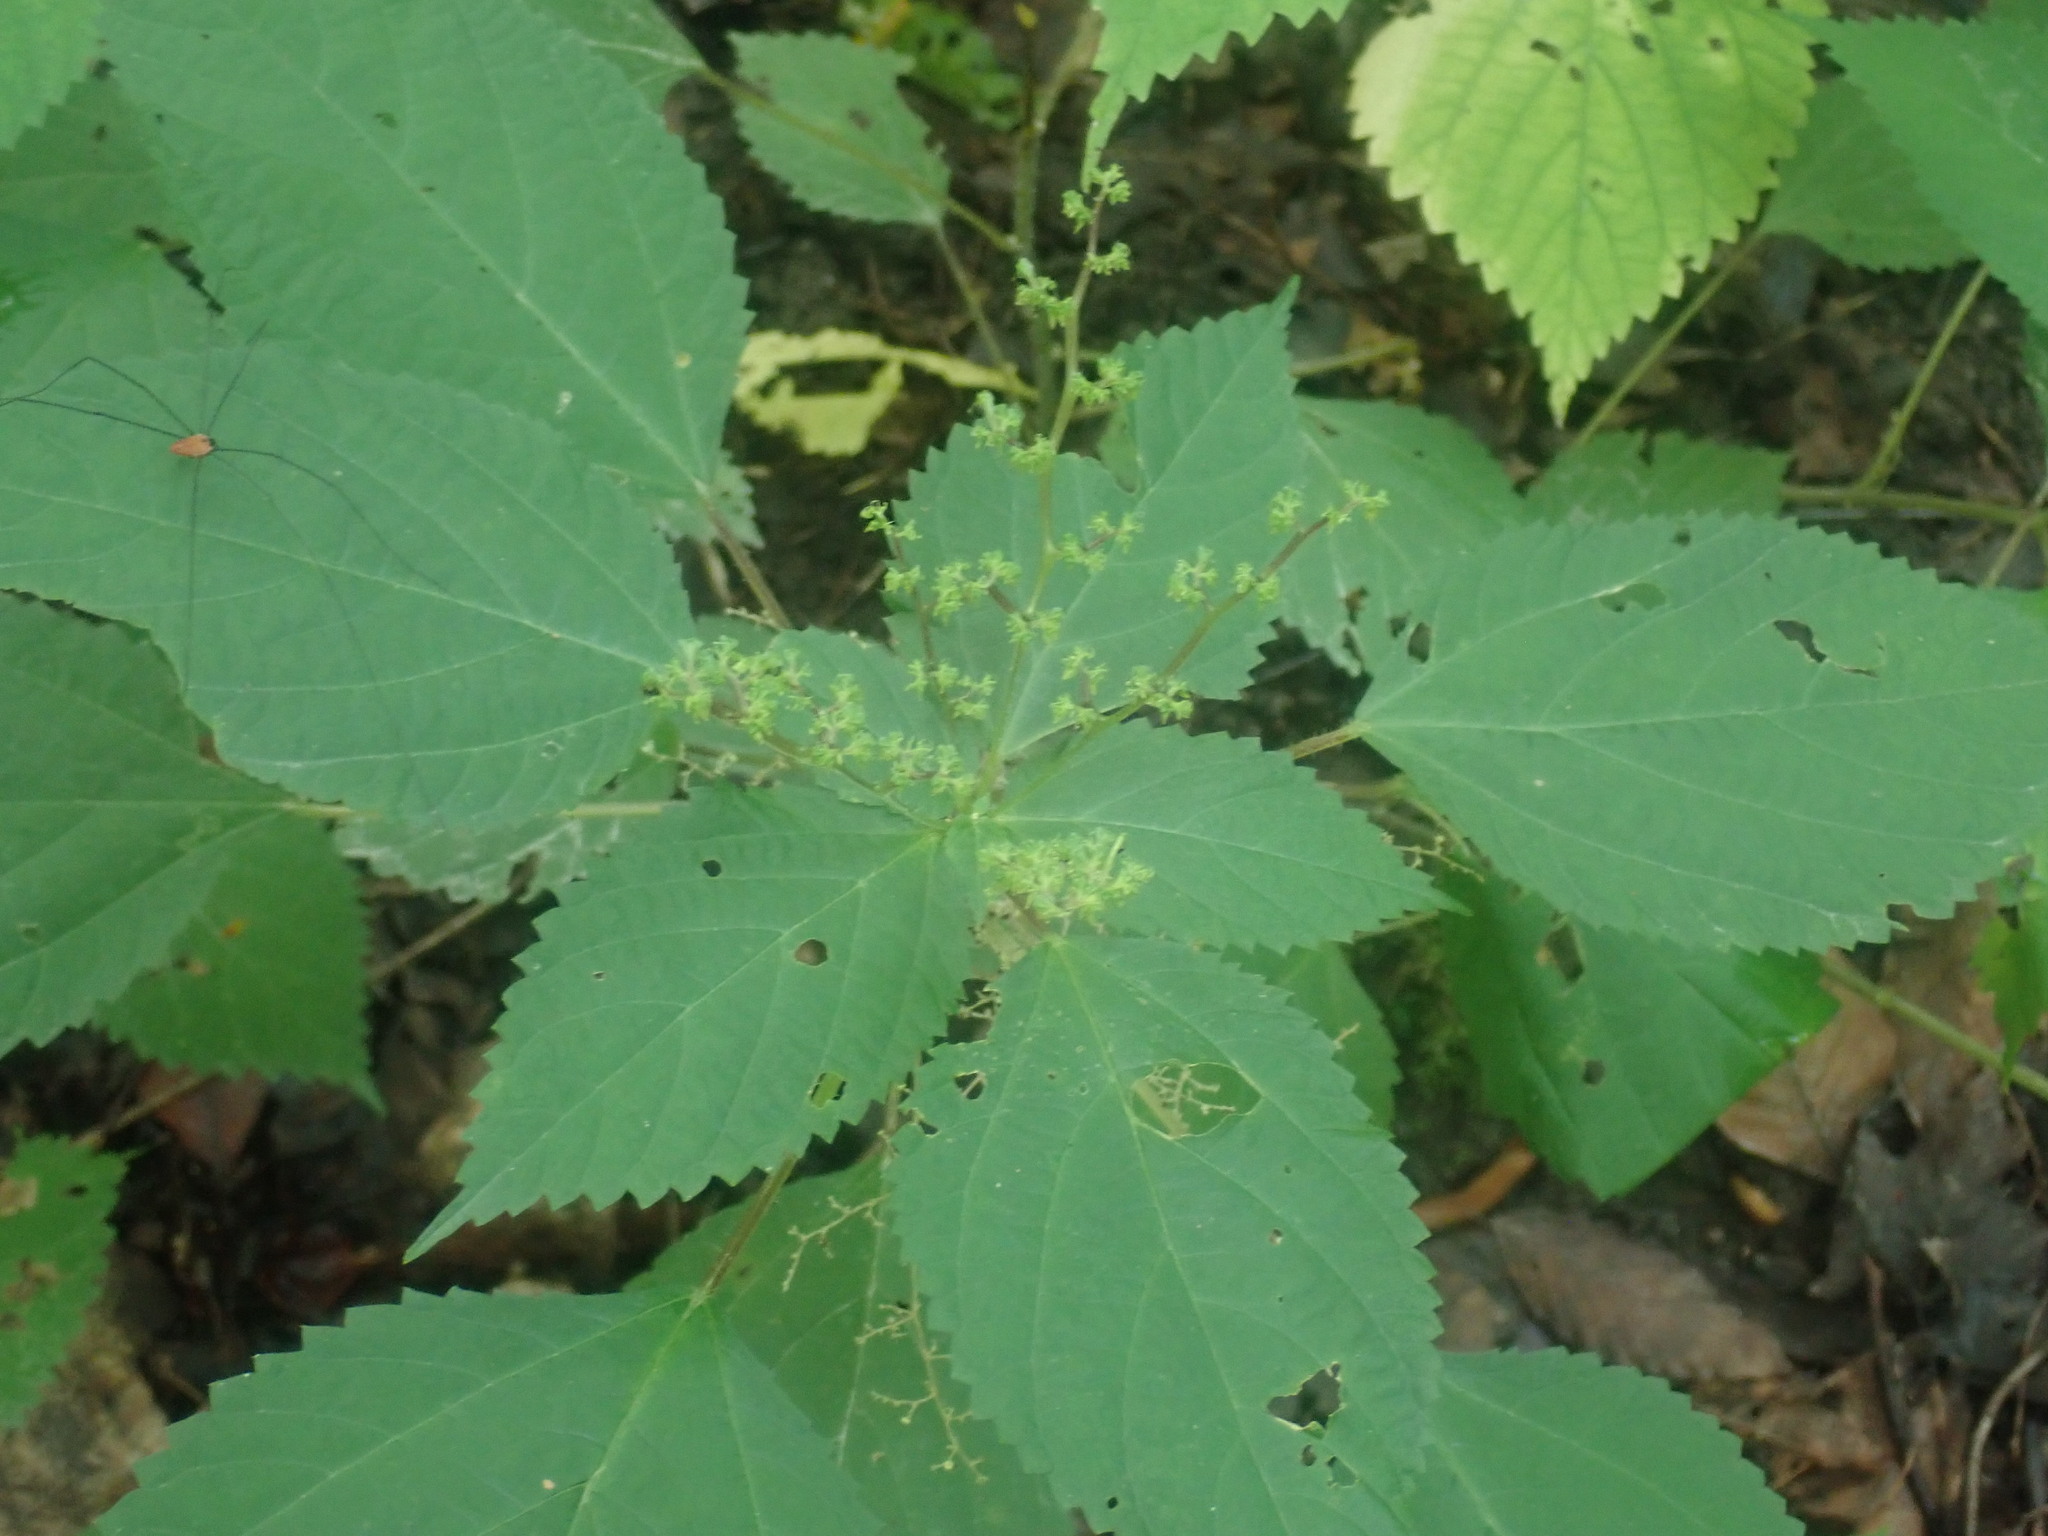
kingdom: Plantae
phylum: Tracheophyta
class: Magnoliopsida
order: Rosales
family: Urticaceae
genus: Laportea
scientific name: Laportea canadensis
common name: Canada nettle
